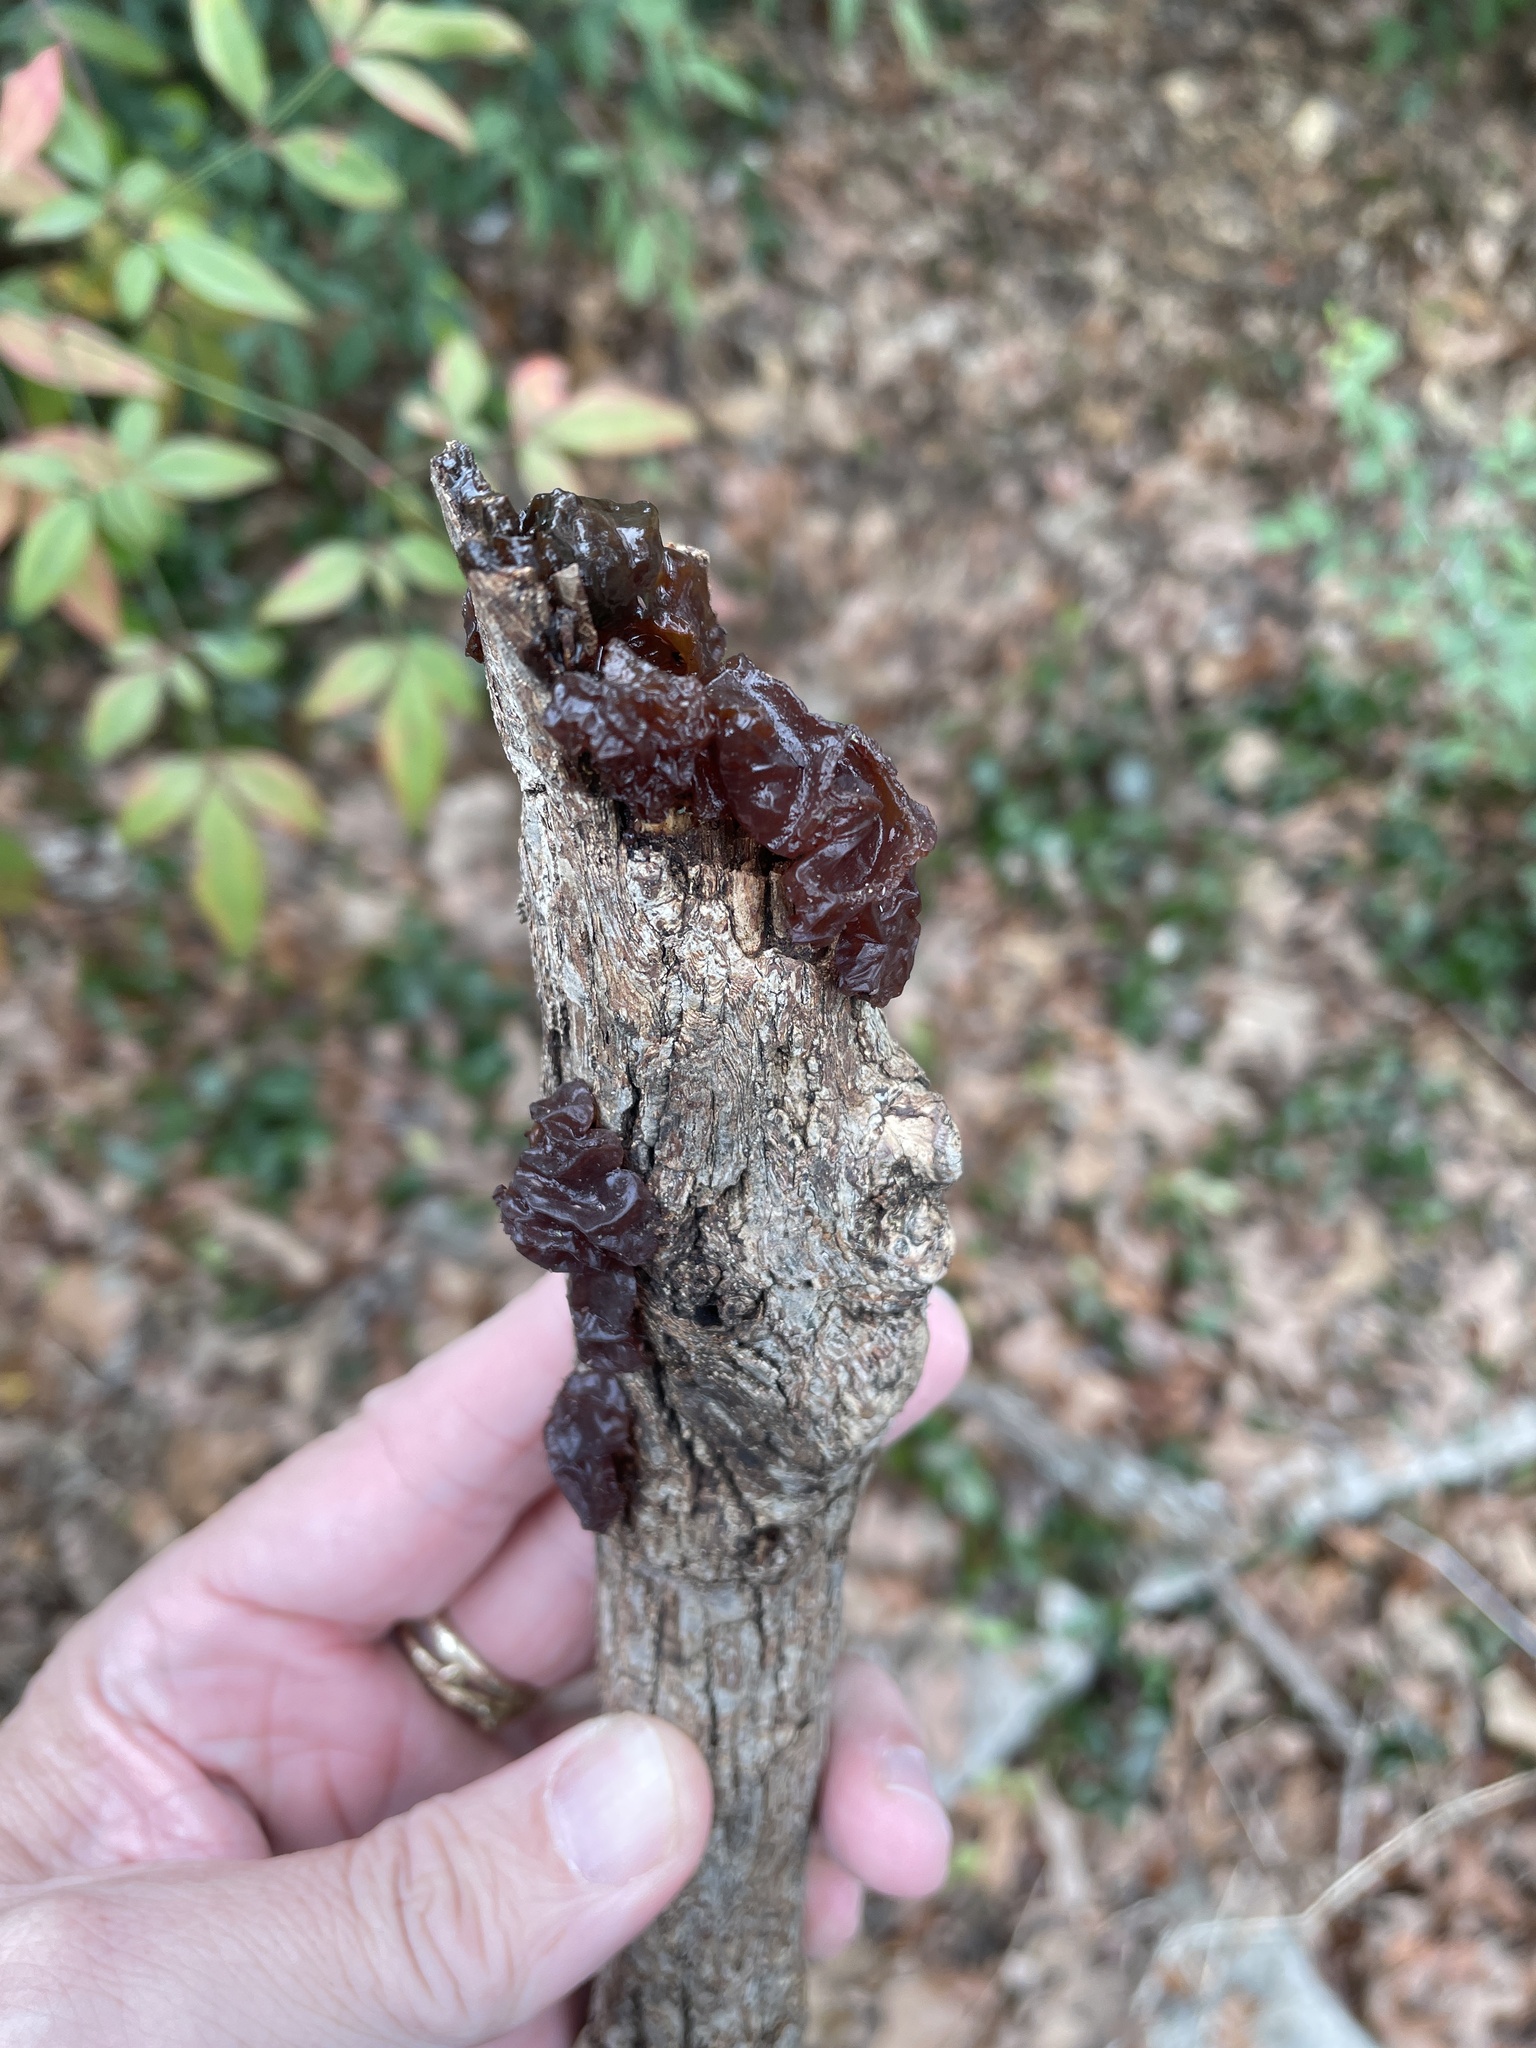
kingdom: Fungi
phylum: Basidiomycota
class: Agaricomycetes
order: Auriculariales
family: Auriculariaceae
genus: Exidia
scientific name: Exidia
